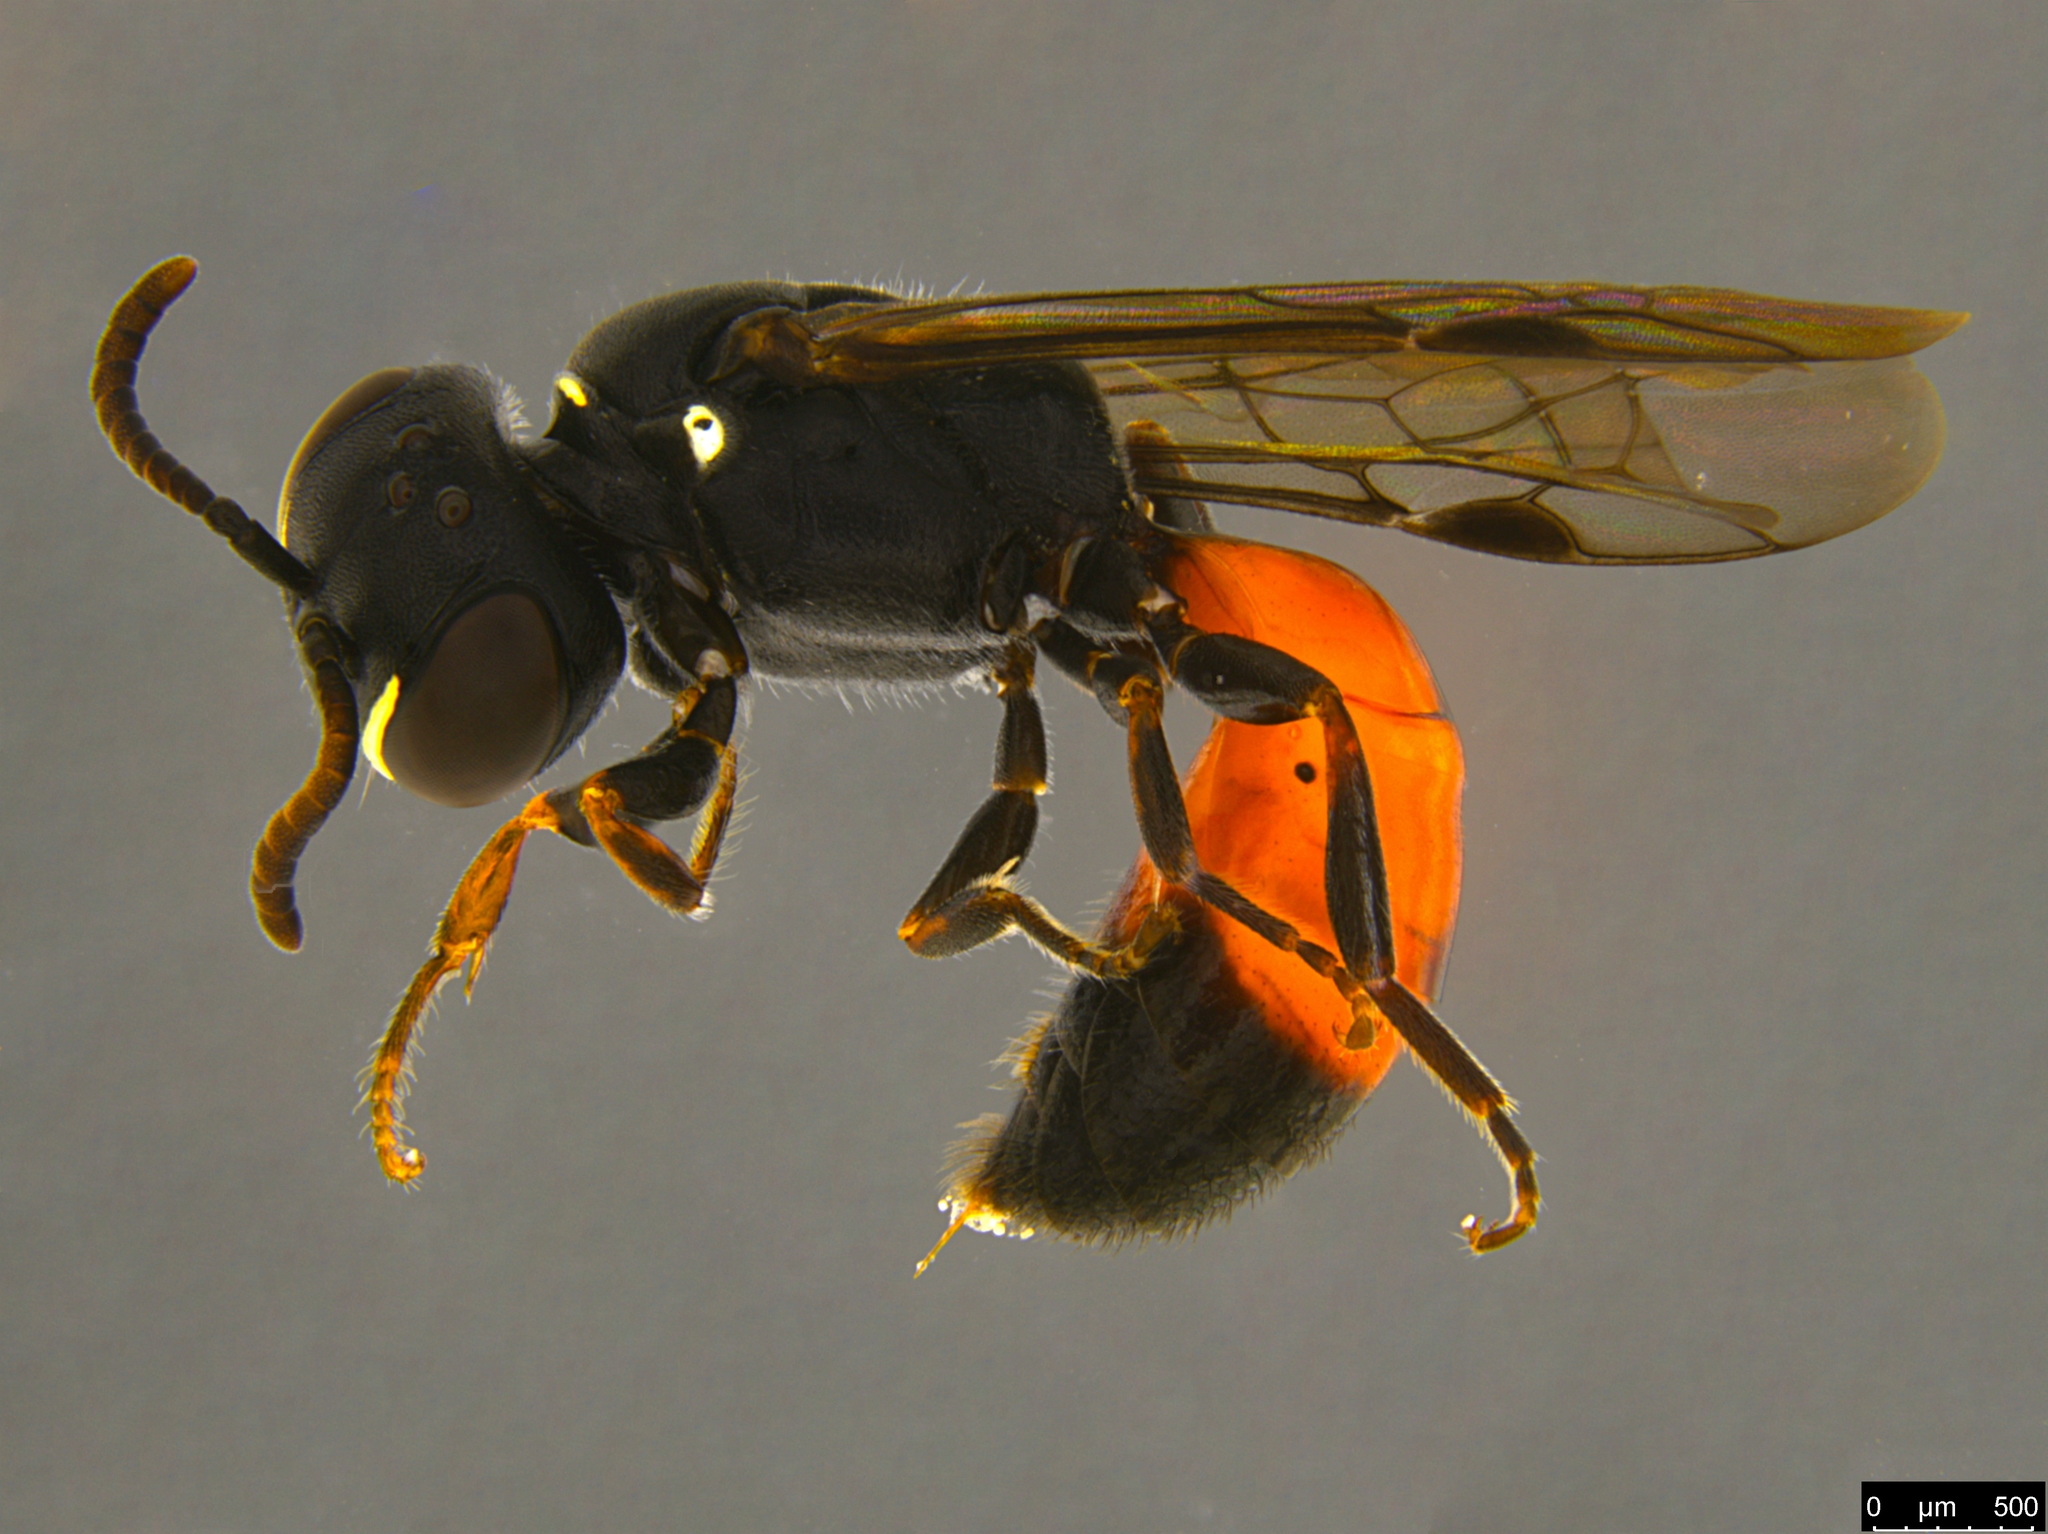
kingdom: Animalia
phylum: Arthropoda
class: Insecta
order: Hymenoptera
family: Colletidae
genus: Hylaeus
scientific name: Hylaeus littleri
